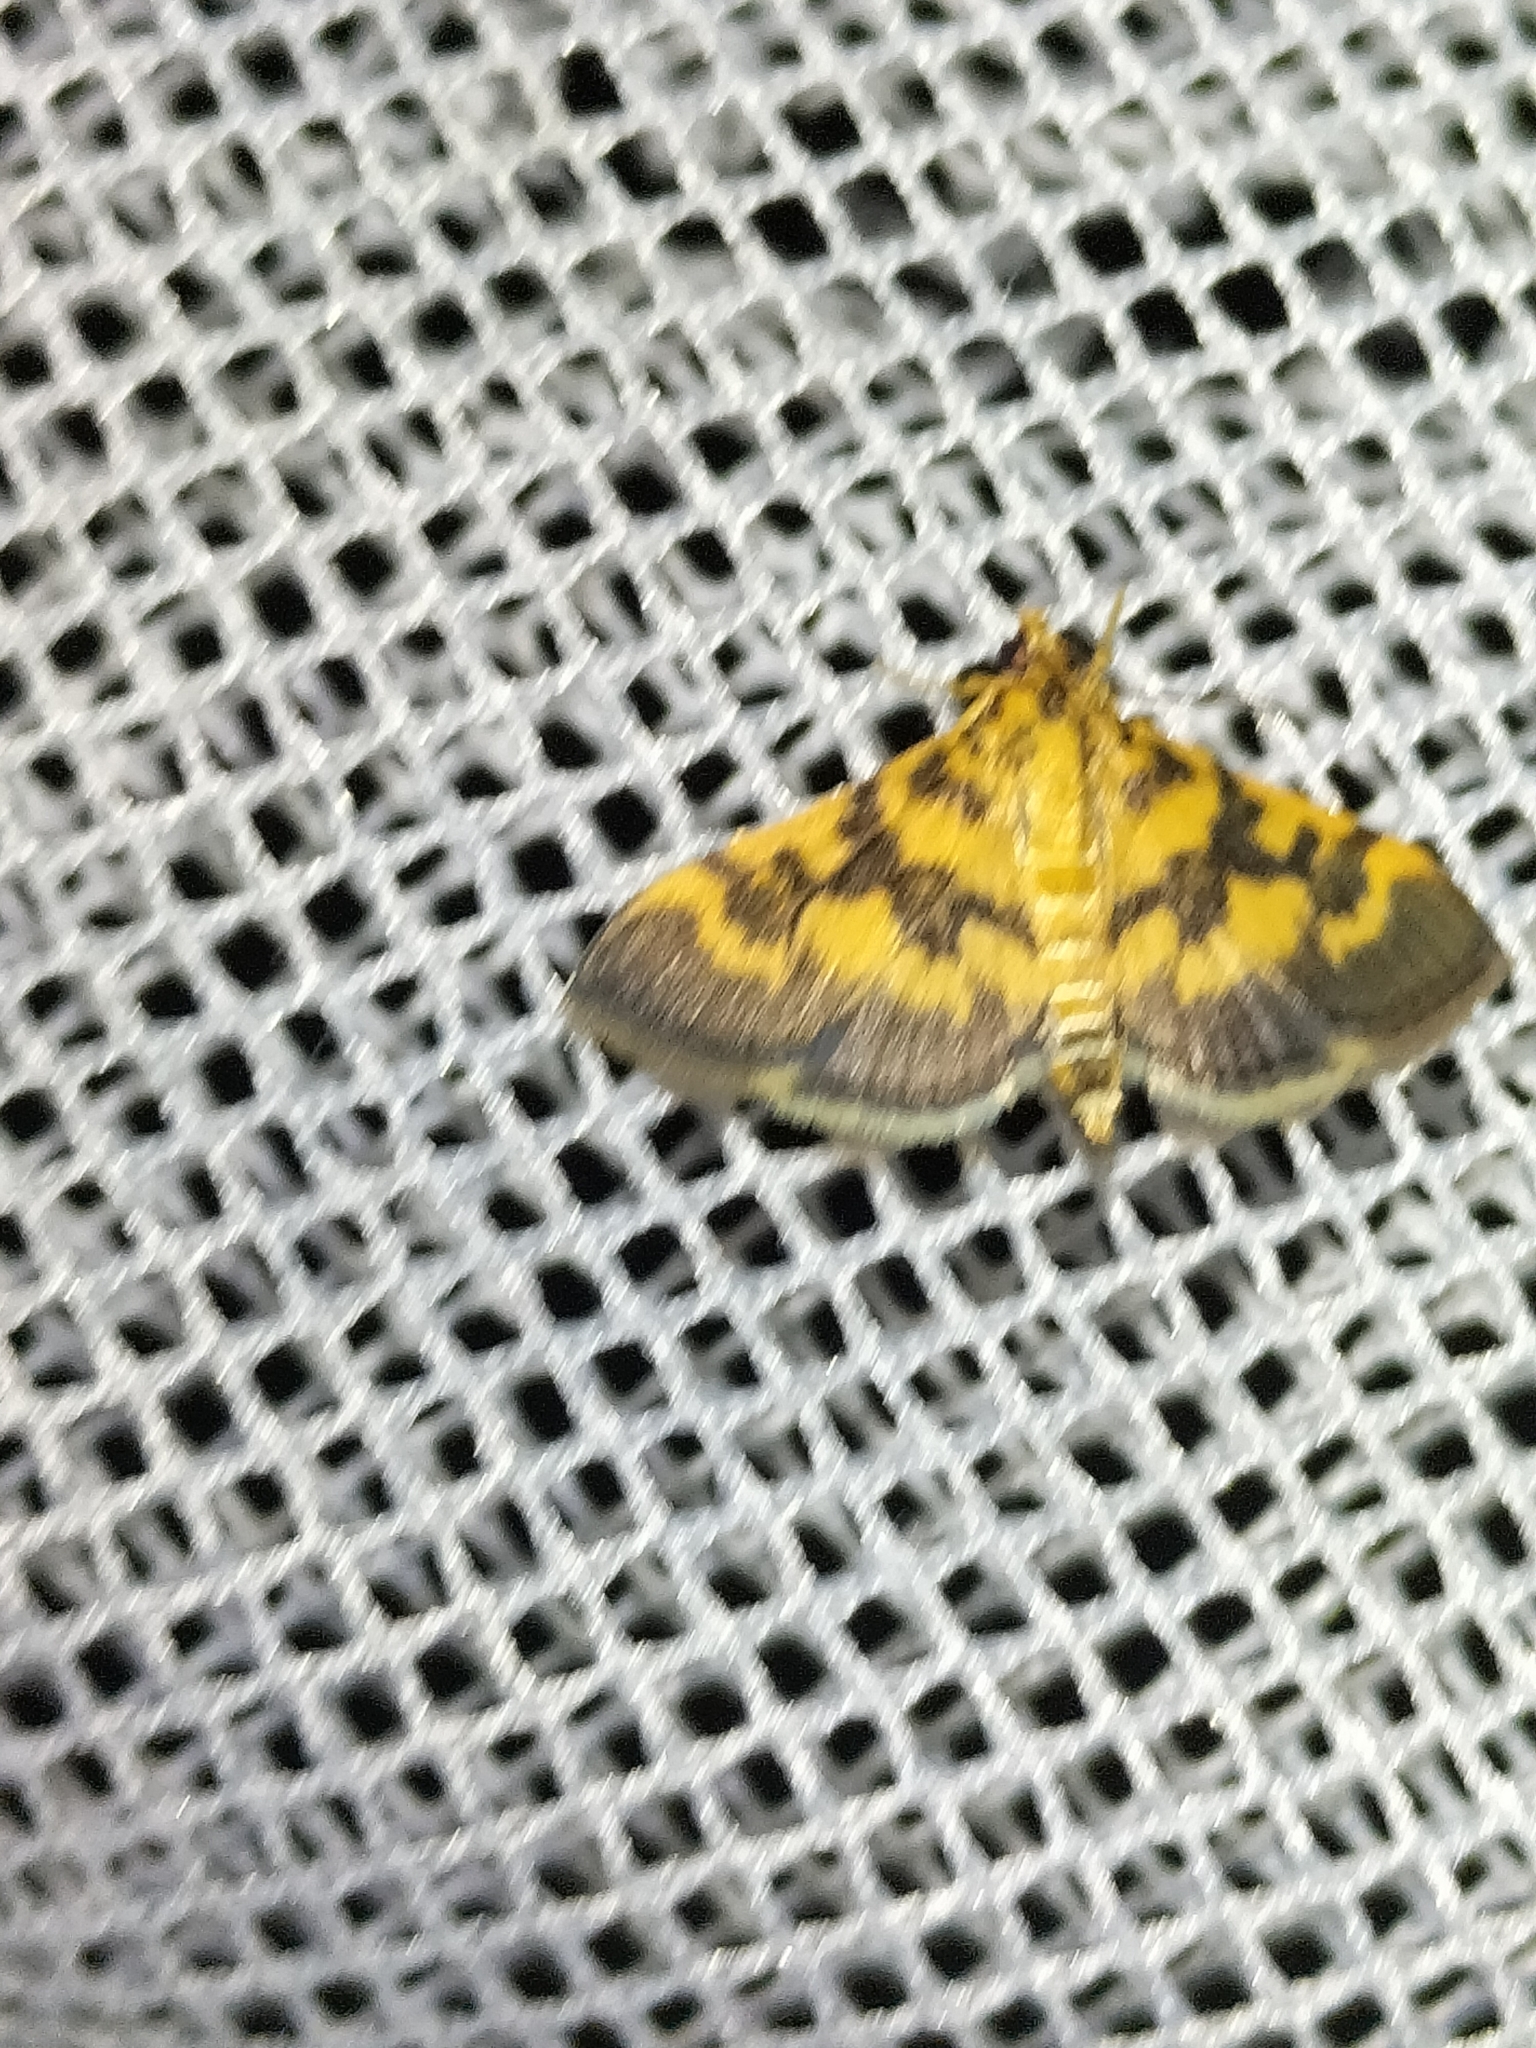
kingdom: Animalia
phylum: Arthropoda
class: Insecta
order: Lepidoptera
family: Crambidae
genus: Omiodes
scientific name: Omiodes diemenalis
